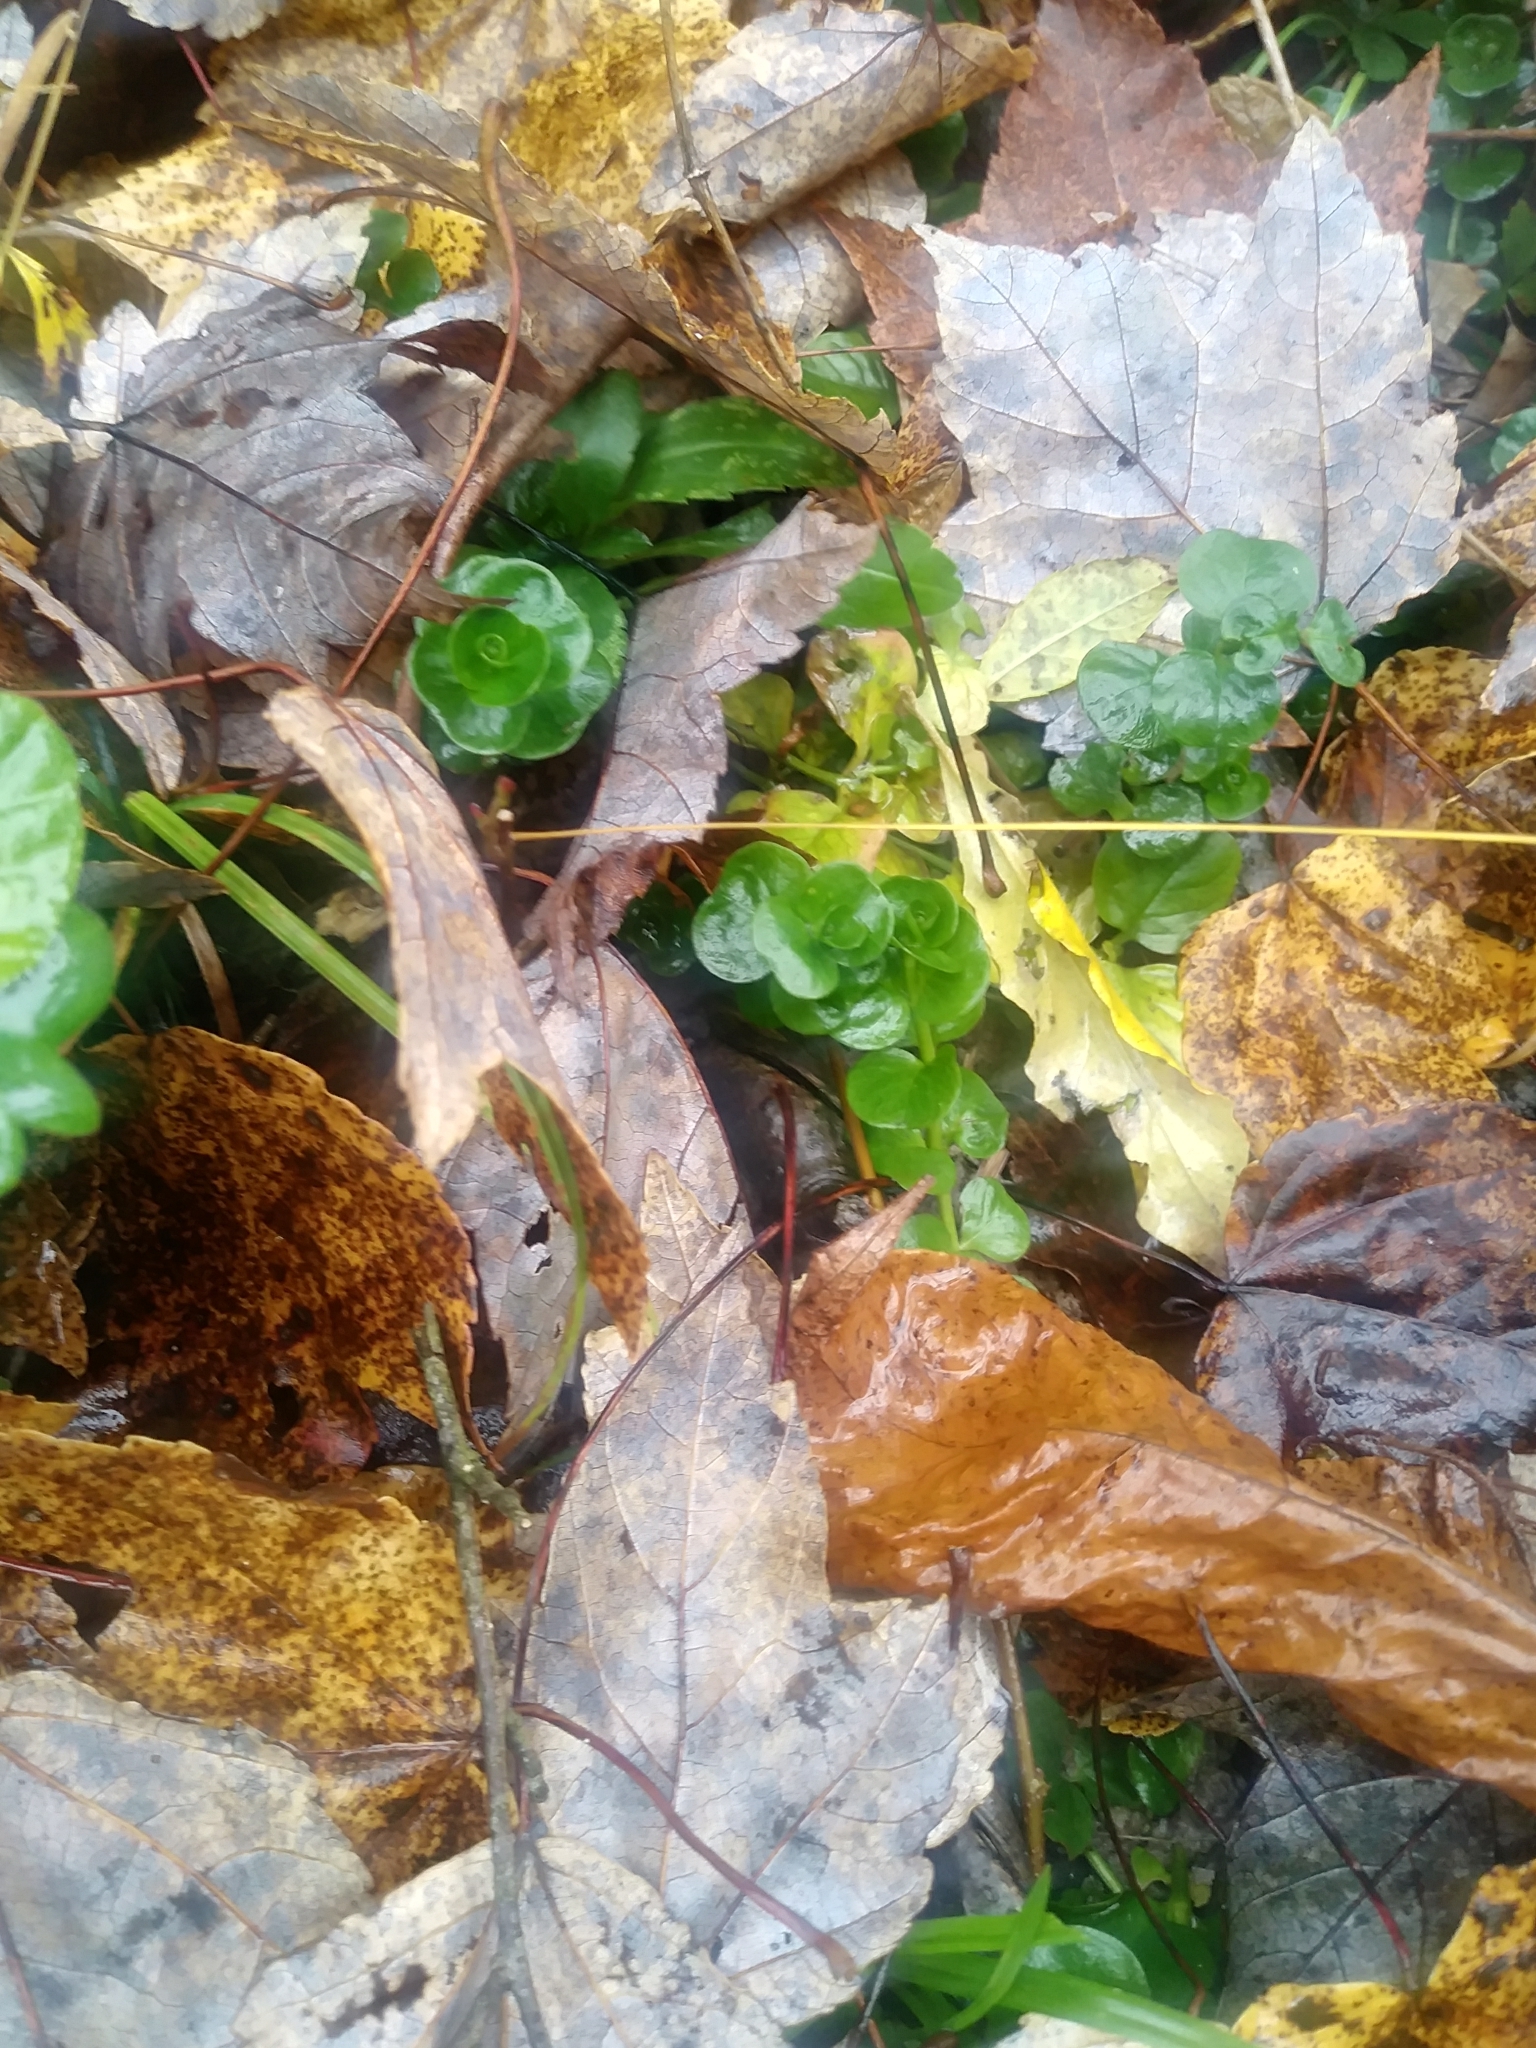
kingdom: Plantae
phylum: Tracheophyta
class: Magnoliopsida
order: Ericales
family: Primulaceae
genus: Lysimachia
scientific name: Lysimachia nummularia
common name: Moneywort
